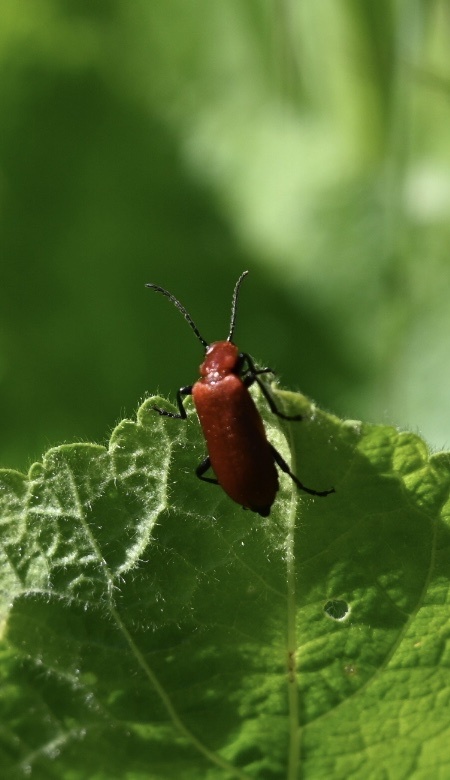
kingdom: Animalia
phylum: Arthropoda
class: Insecta
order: Coleoptera
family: Pyrochroidae
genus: Pyrochroa
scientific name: Pyrochroa serraticornis
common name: Red-headed cardinal beetle
